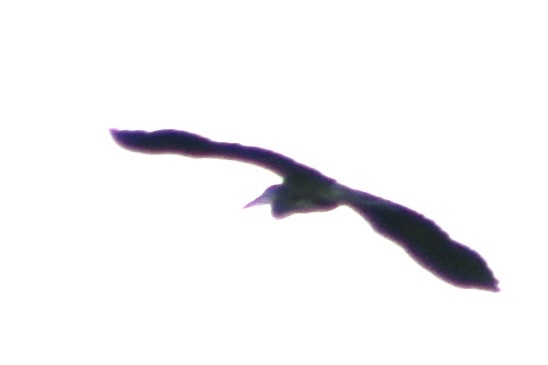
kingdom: Animalia
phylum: Chordata
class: Aves
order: Pelecaniformes
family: Ardeidae
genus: Ardea
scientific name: Ardea herodias
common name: Great blue heron
